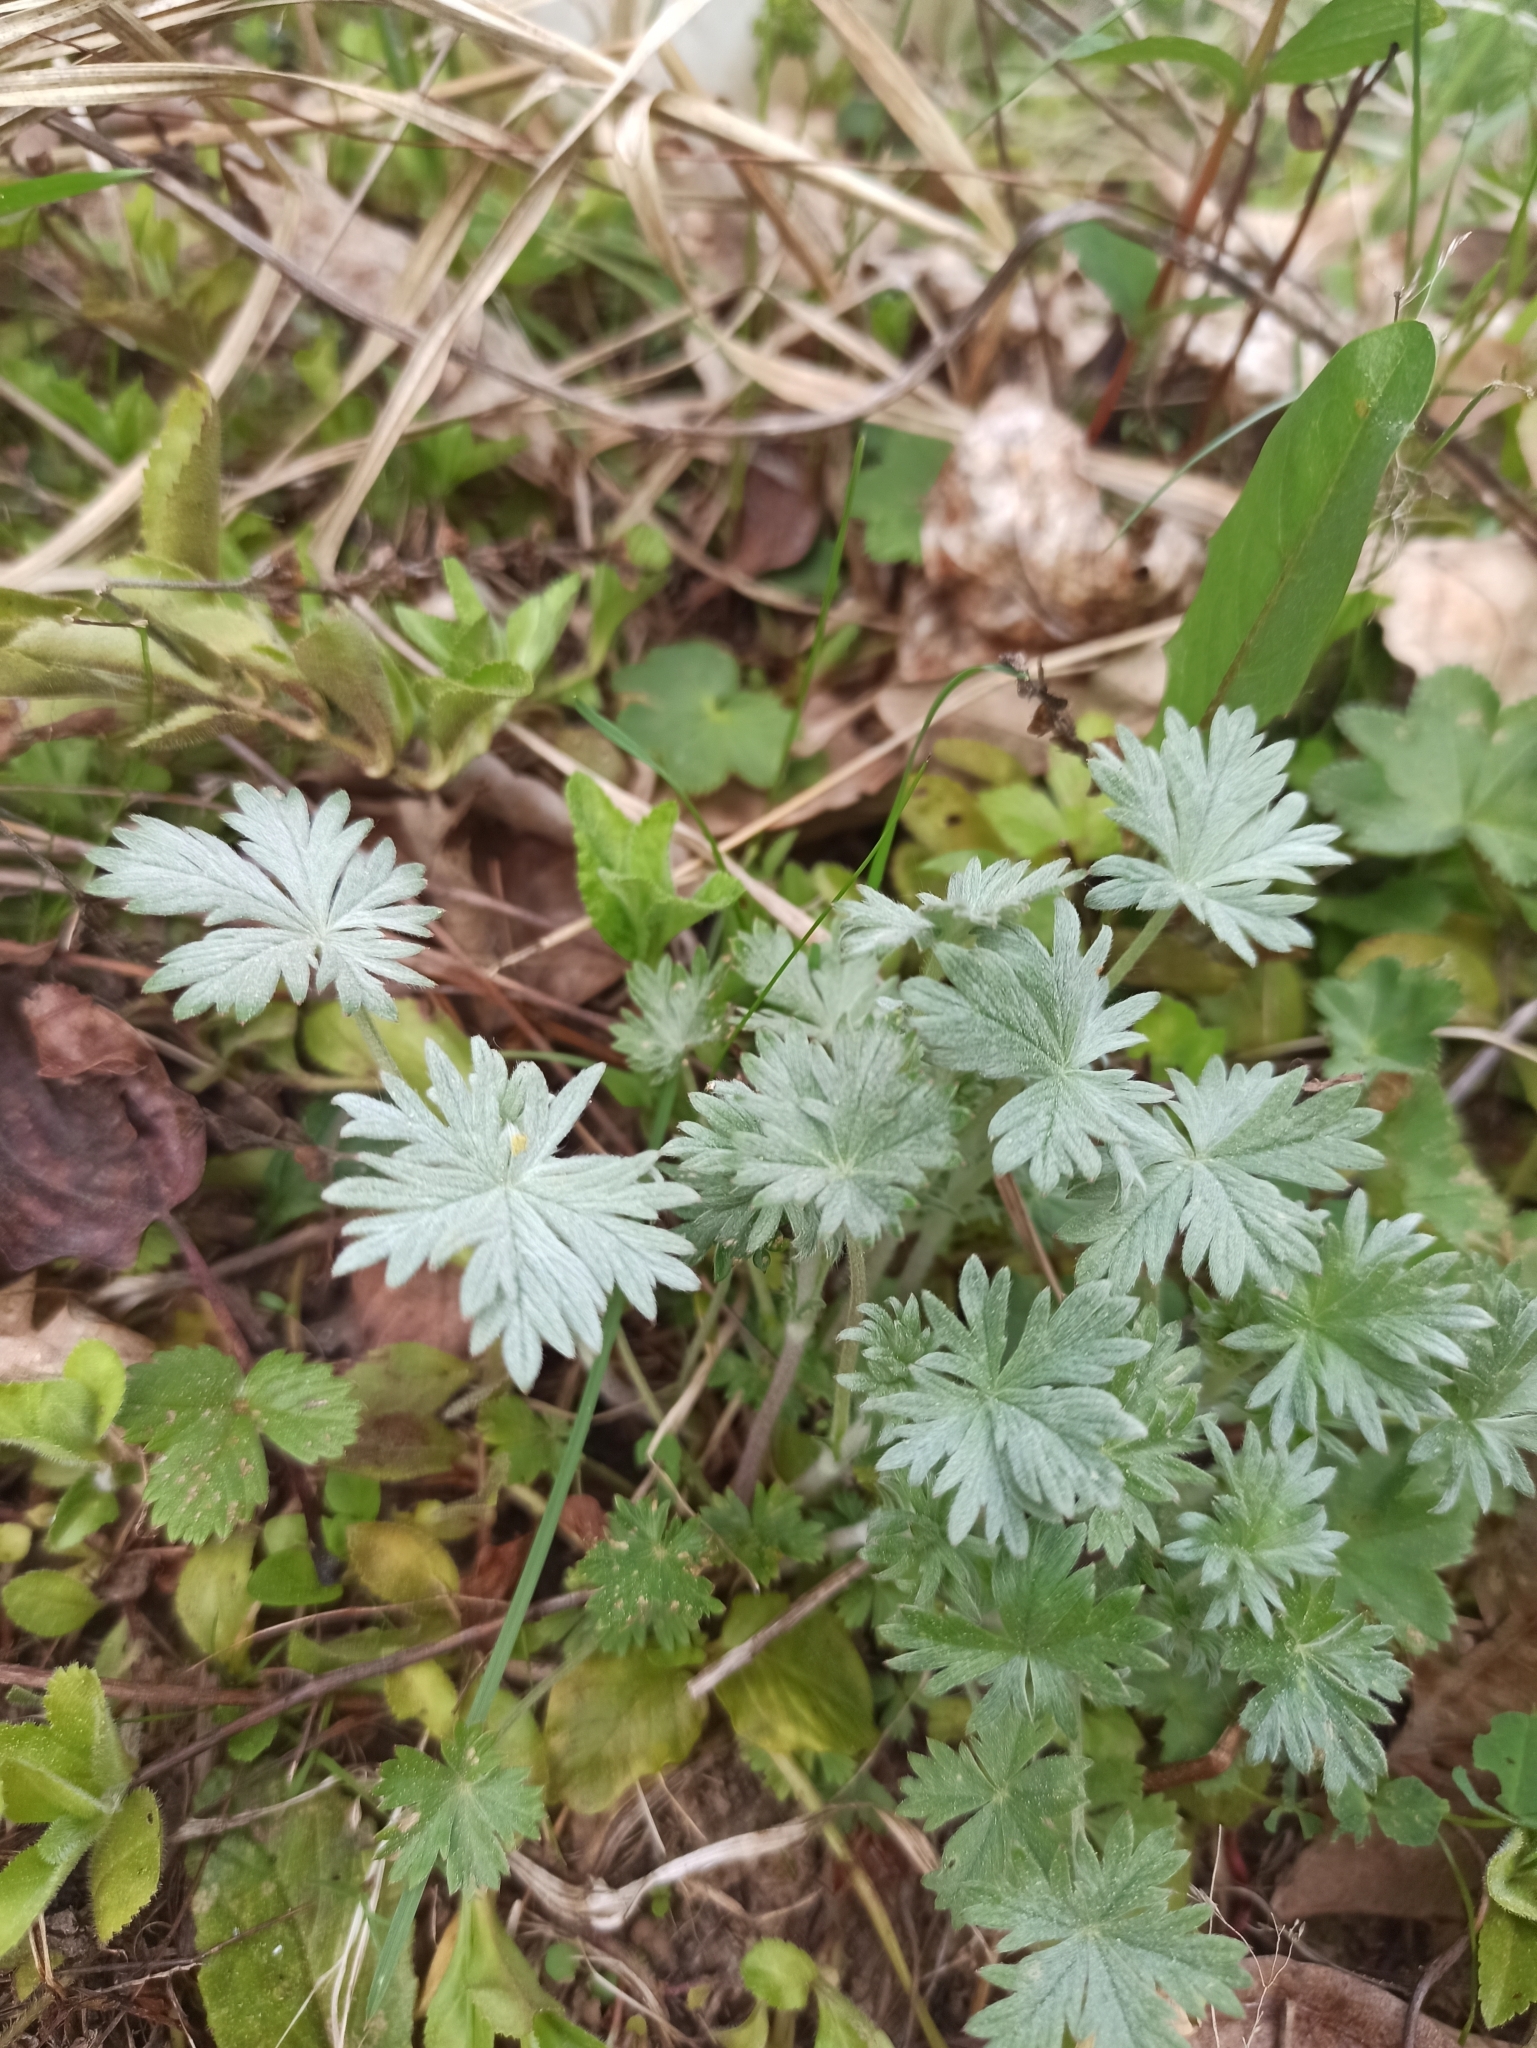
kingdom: Plantae
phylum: Tracheophyta
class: Magnoliopsida
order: Rosales
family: Rosaceae
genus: Potentilla
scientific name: Potentilla argentea
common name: Hoary cinquefoil
